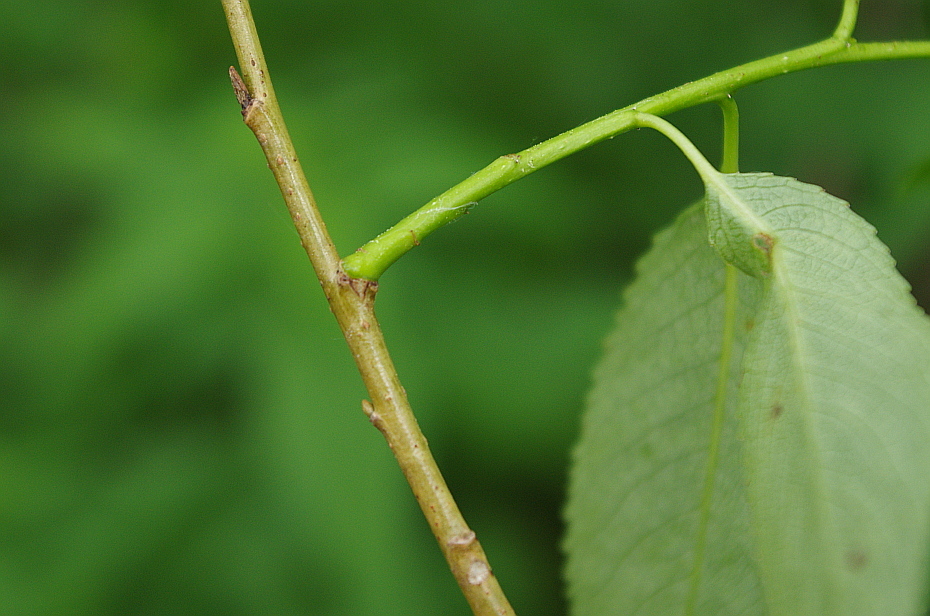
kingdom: Plantae
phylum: Tracheophyta
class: Magnoliopsida
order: Malpighiales
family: Salicaceae
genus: Salix
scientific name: Salix alba
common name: White willow
